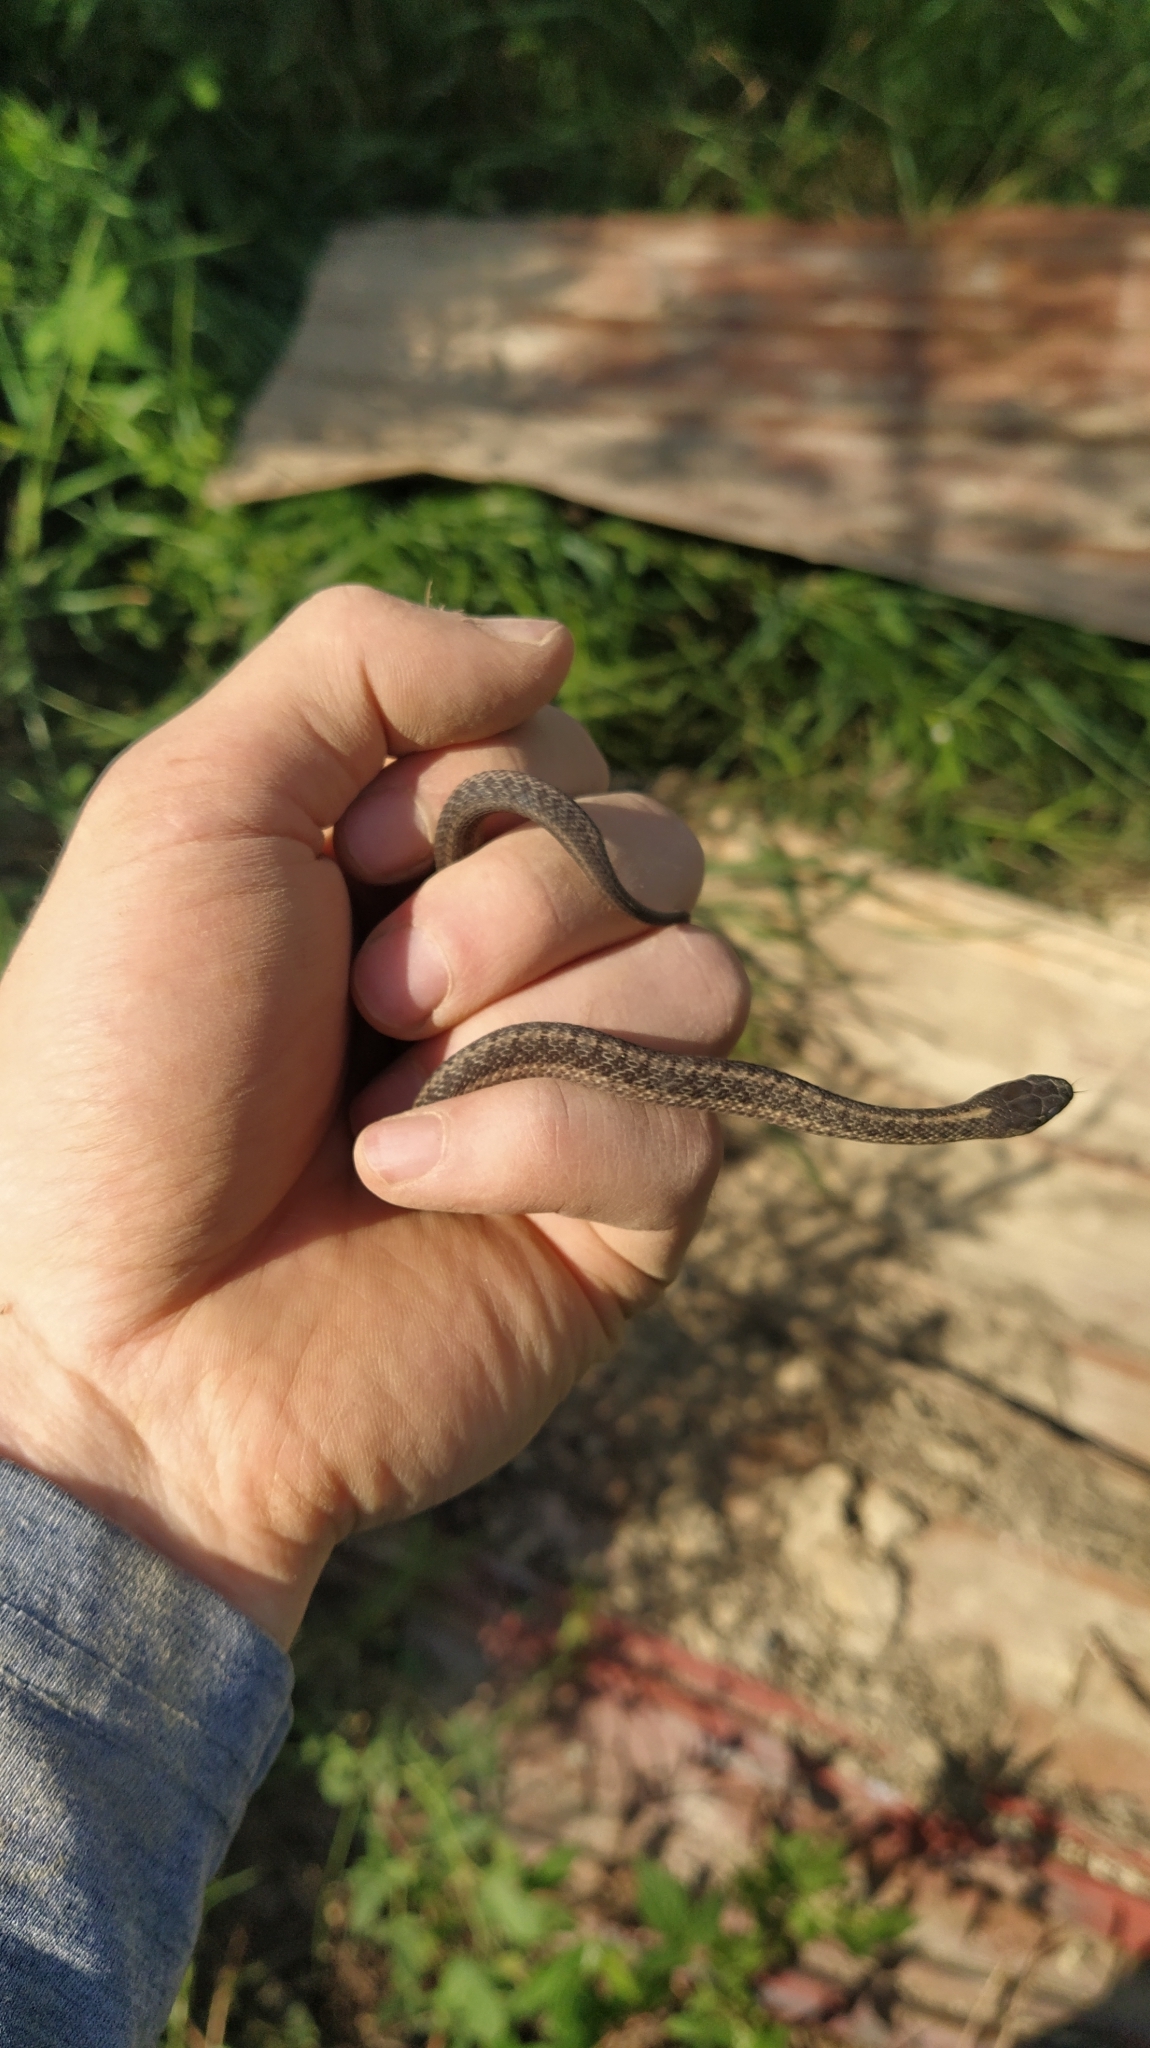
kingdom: Animalia
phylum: Chordata
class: Squamata
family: Colubridae
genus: Thamnophis
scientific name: Thamnophis sirtalis
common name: Common garter snake
